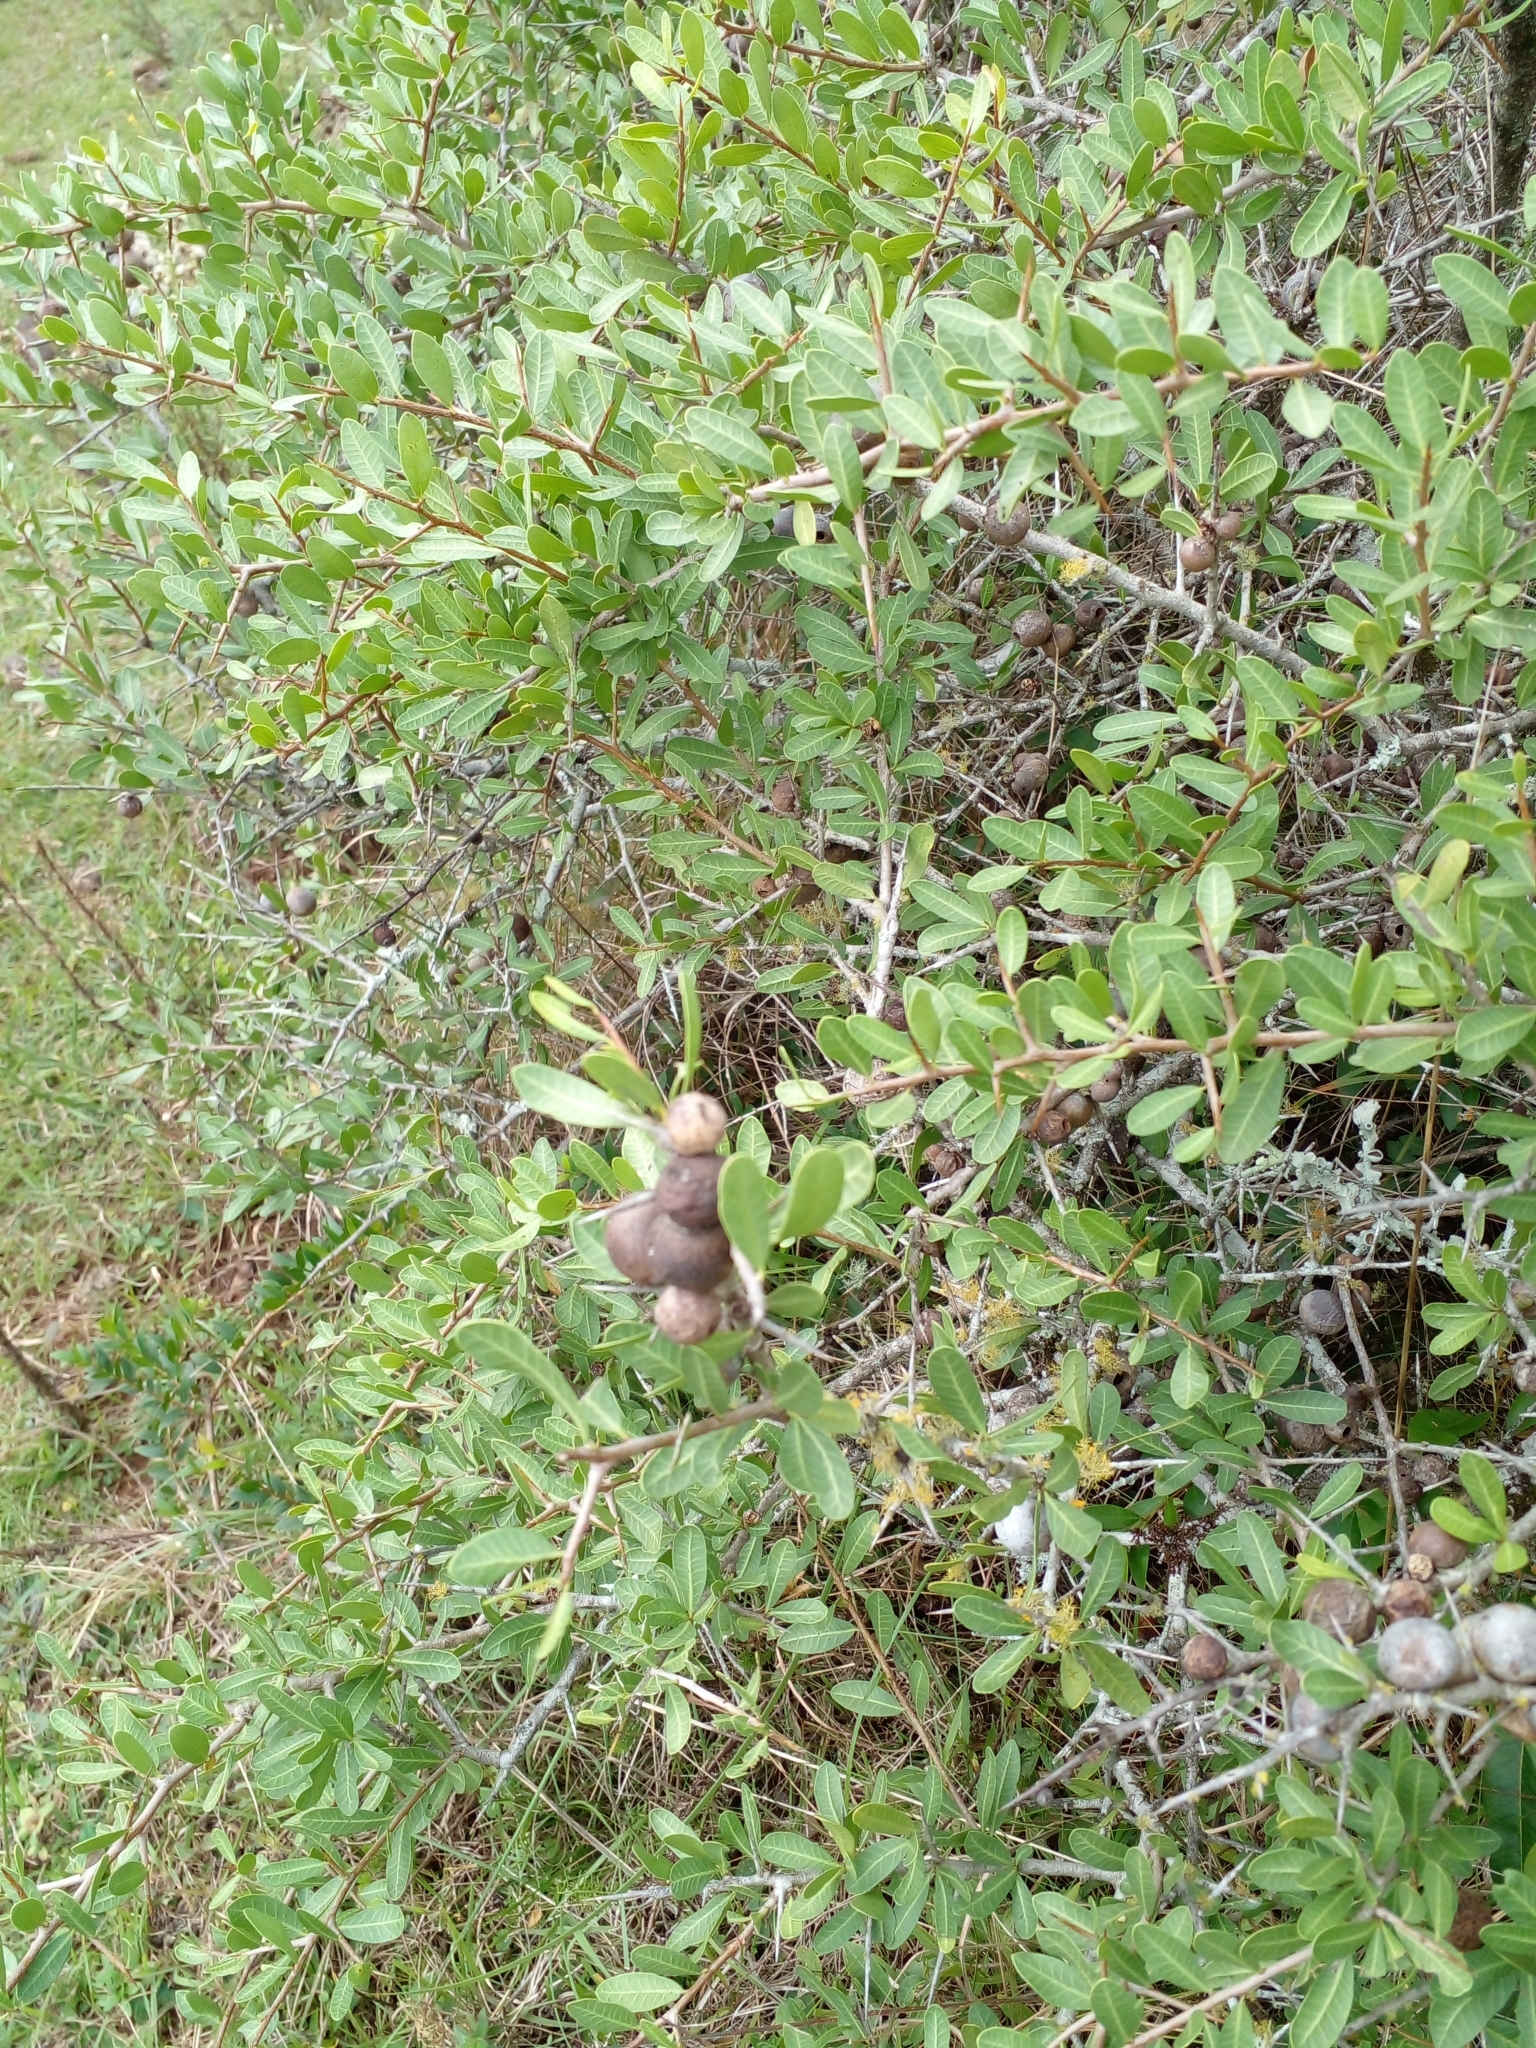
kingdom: Plantae
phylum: Tracheophyta
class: Magnoliopsida
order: Sapindales
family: Anacardiaceae
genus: Schinus
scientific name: Schinus engleri
